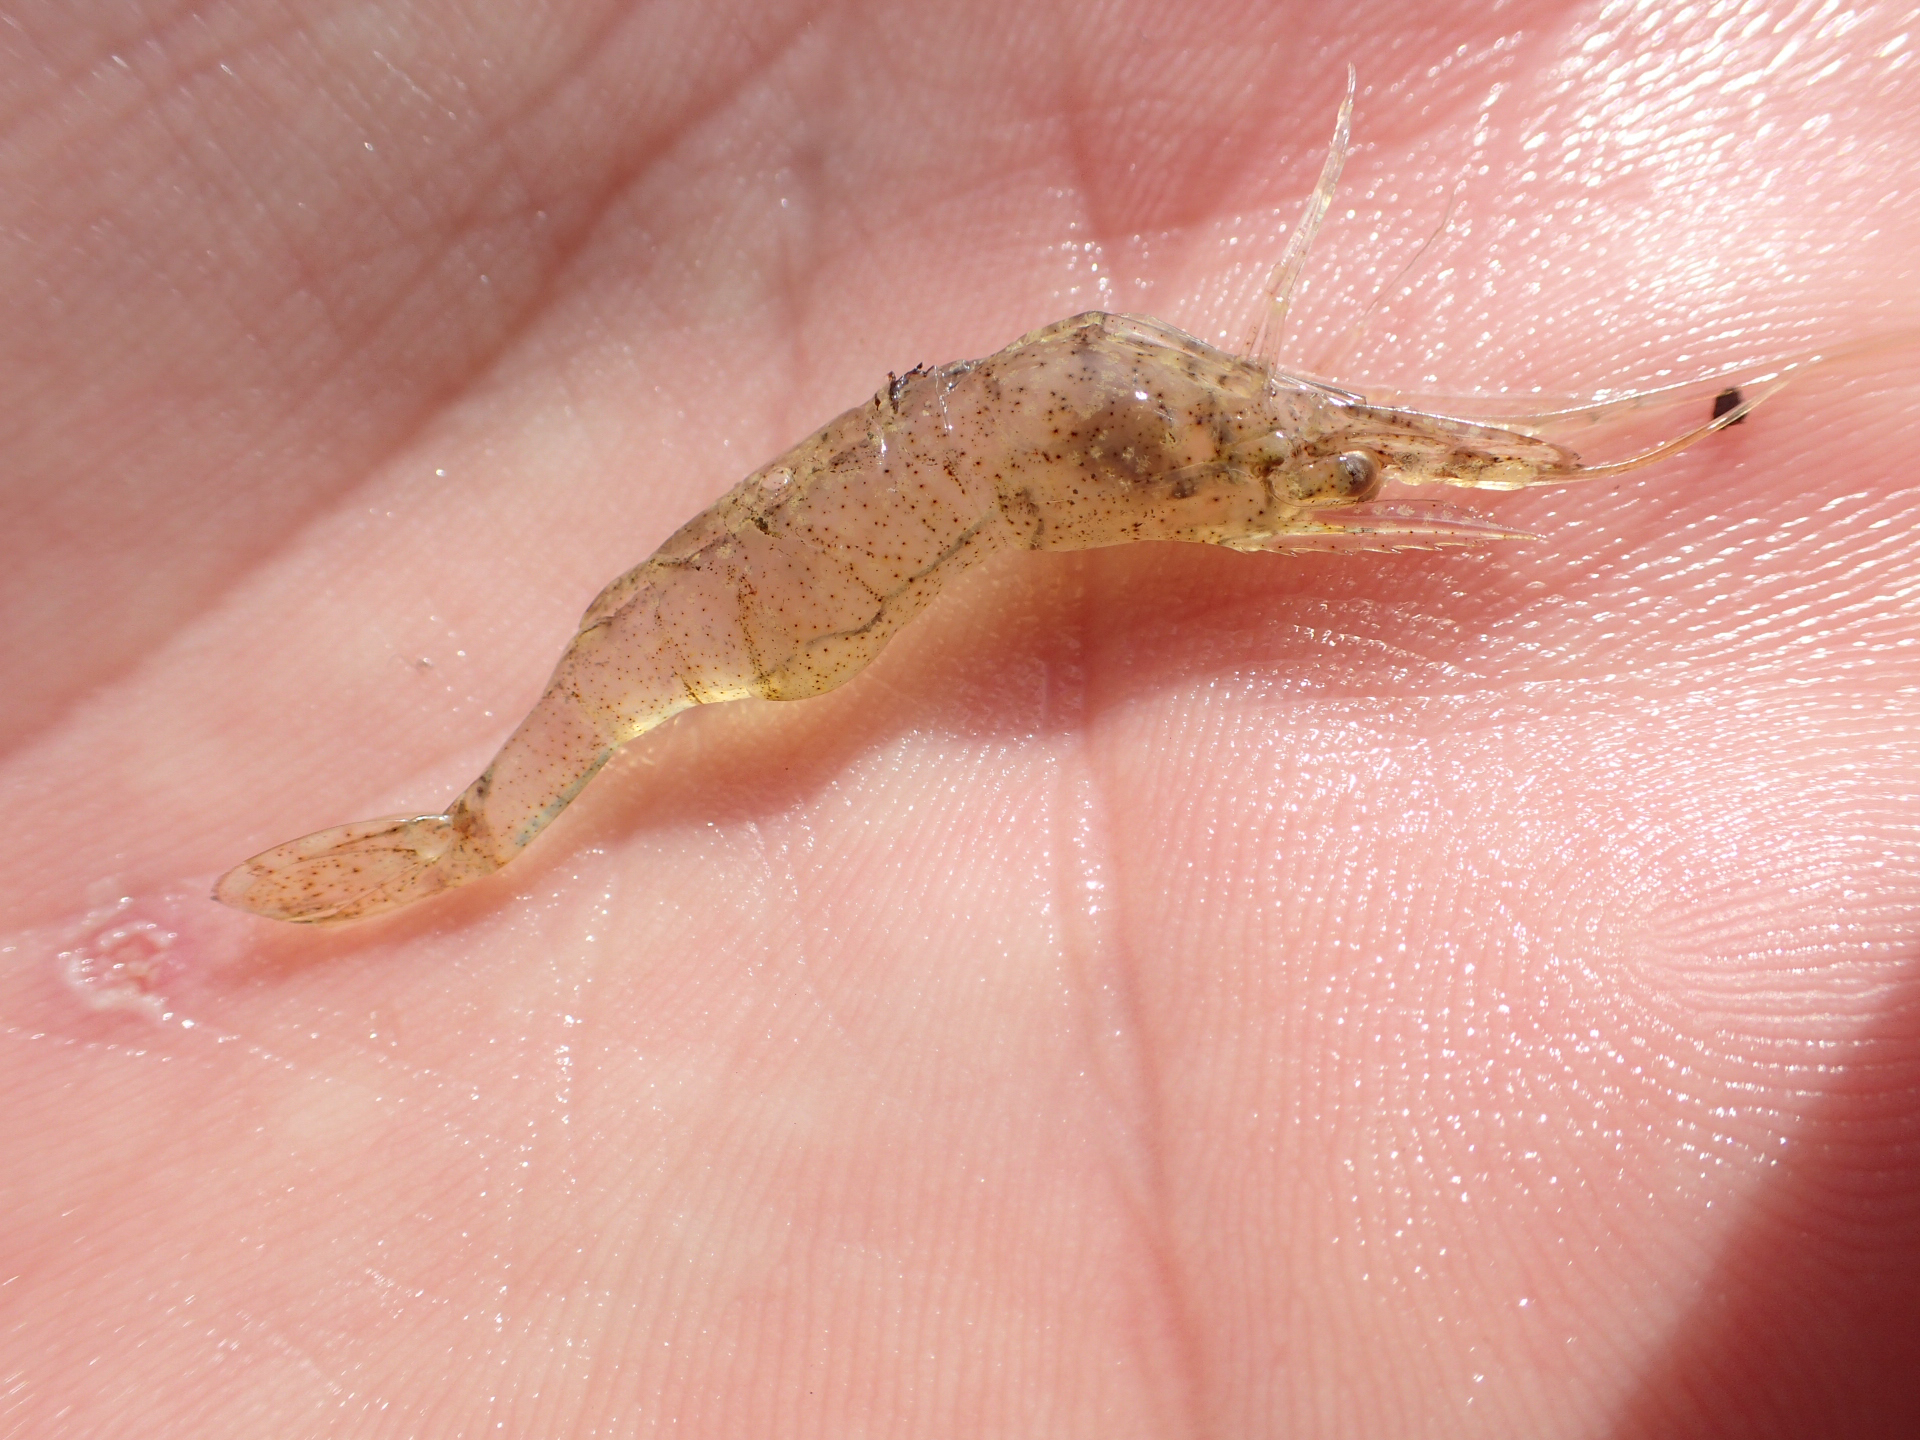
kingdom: Animalia
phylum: Arthropoda
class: Malacostraca
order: Decapoda
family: Palaemonidae
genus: Palaemon
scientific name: Palaemon kadiakensis
